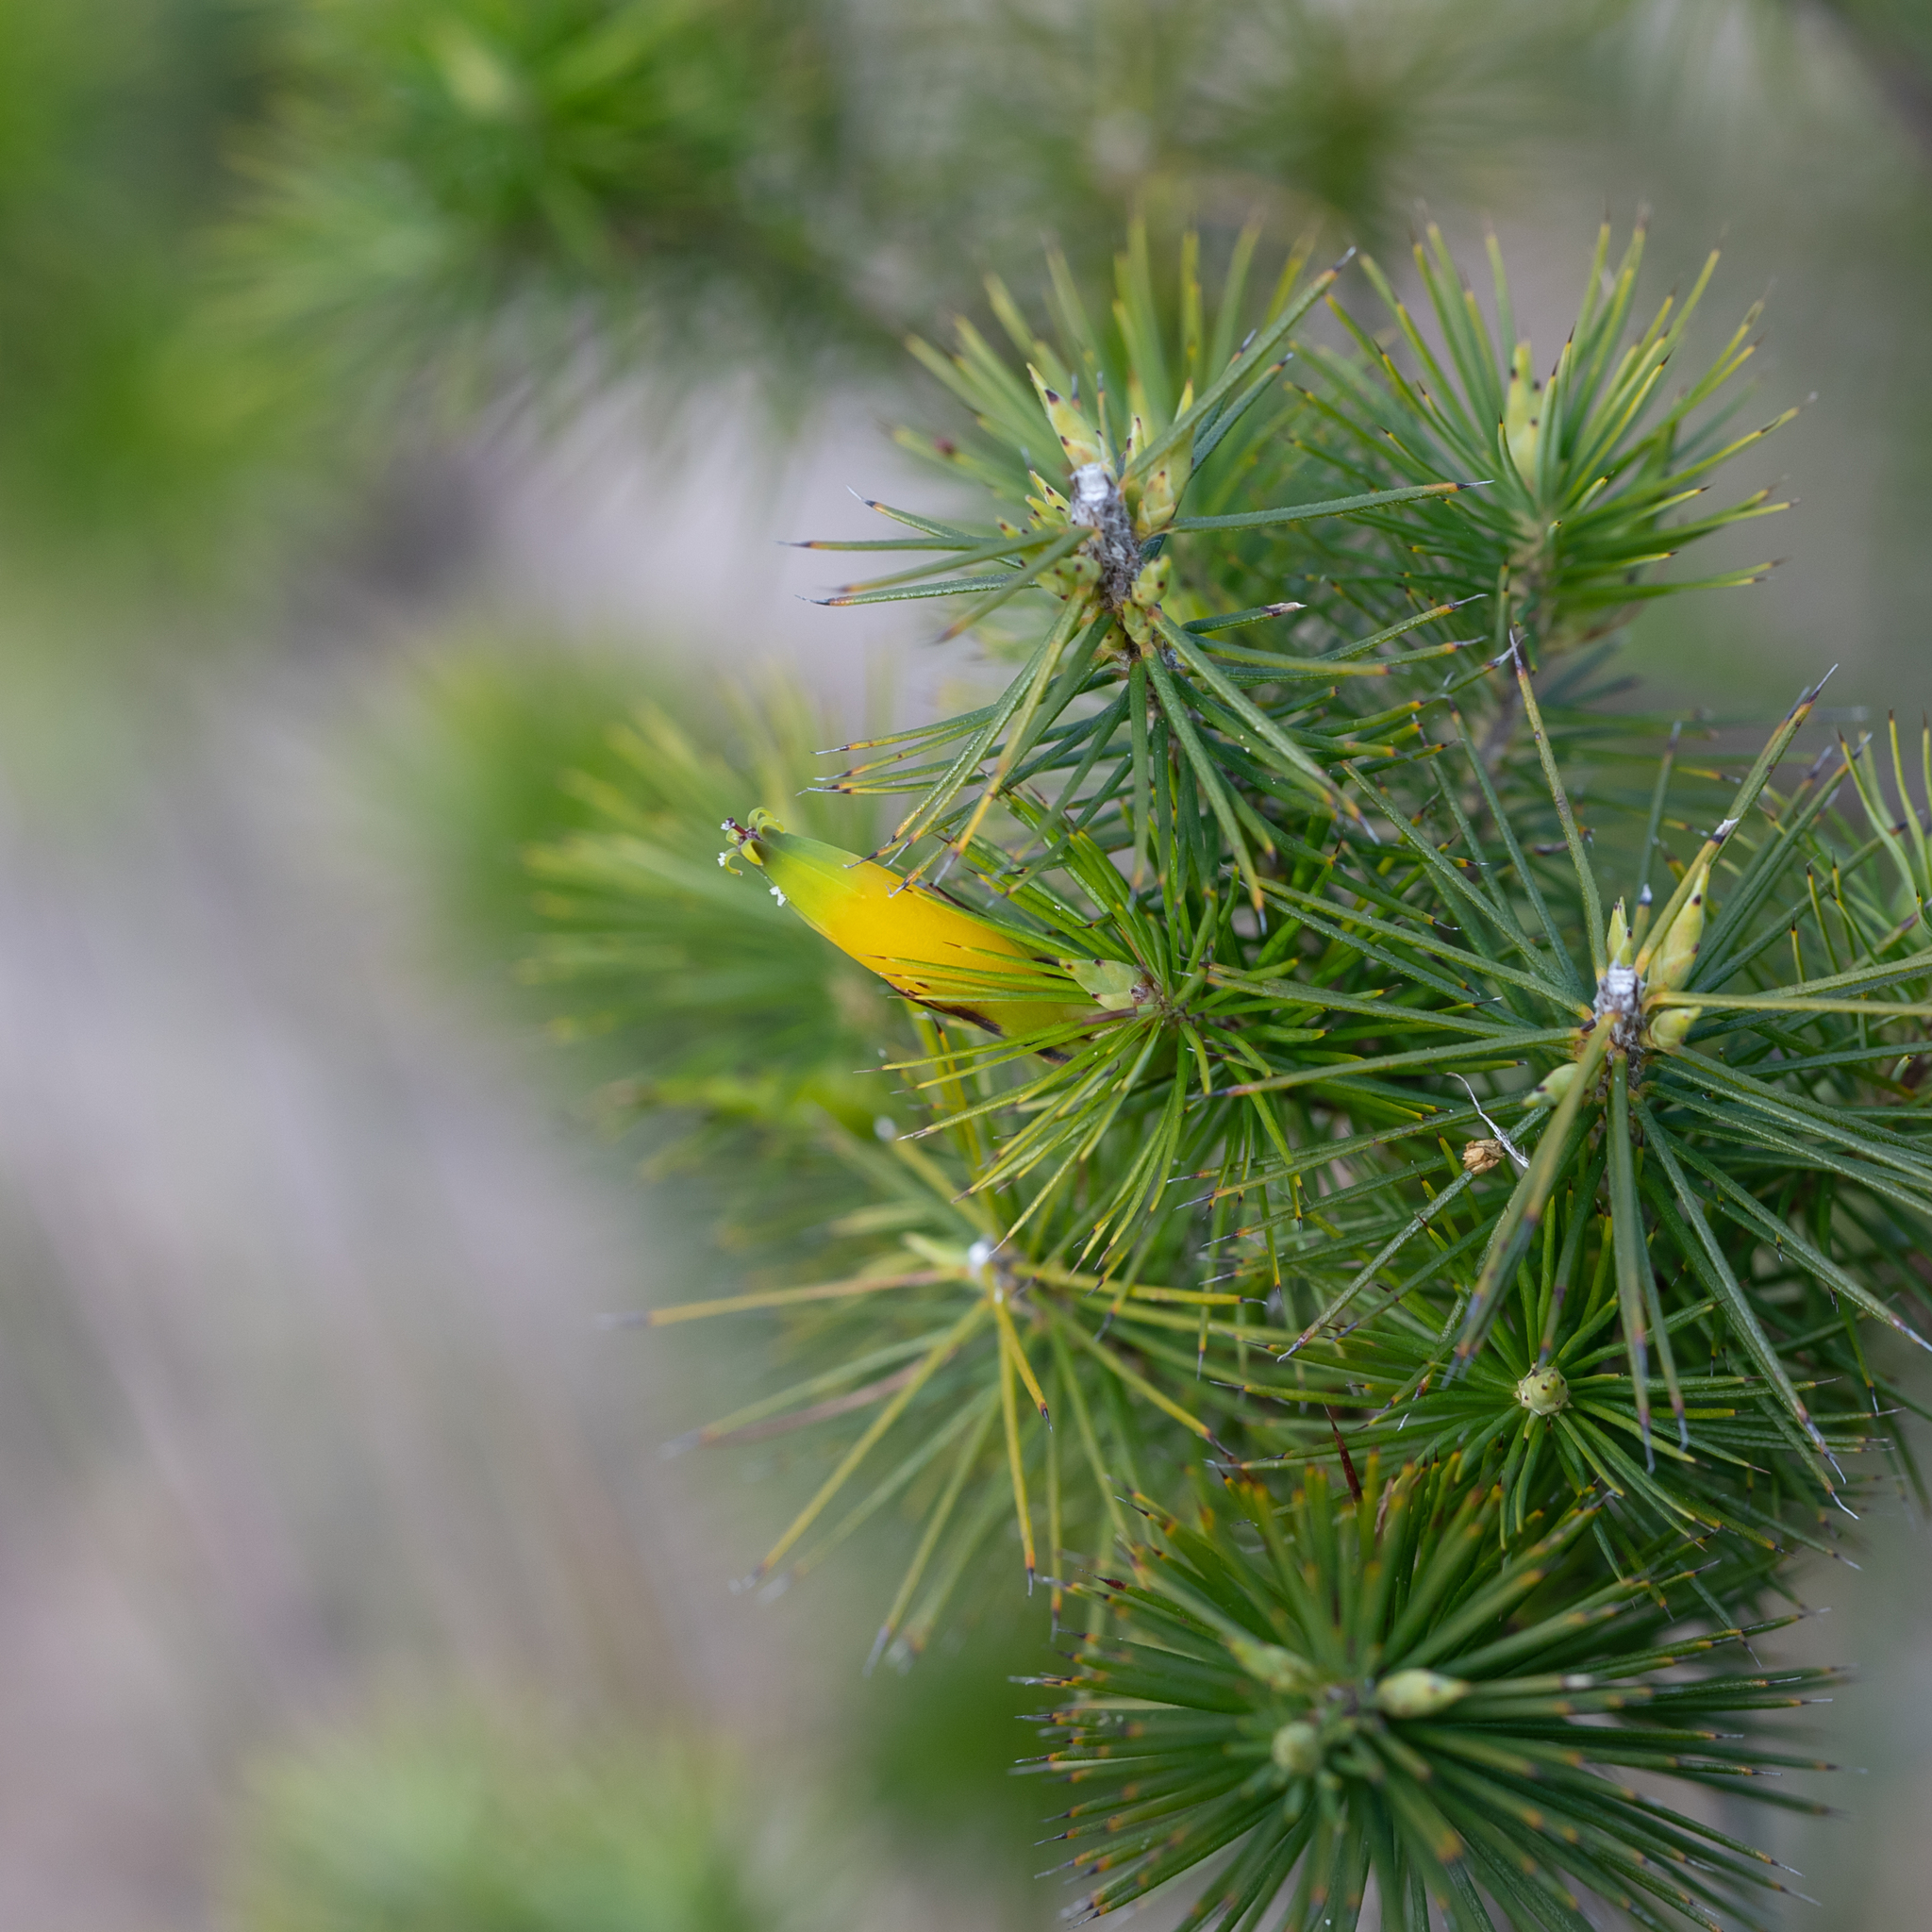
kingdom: Plantae
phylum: Tracheophyta
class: Magnoliopsida
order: Ericales
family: Ericaceae
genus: Stenanthera
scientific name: Stenanthera pinifolia
